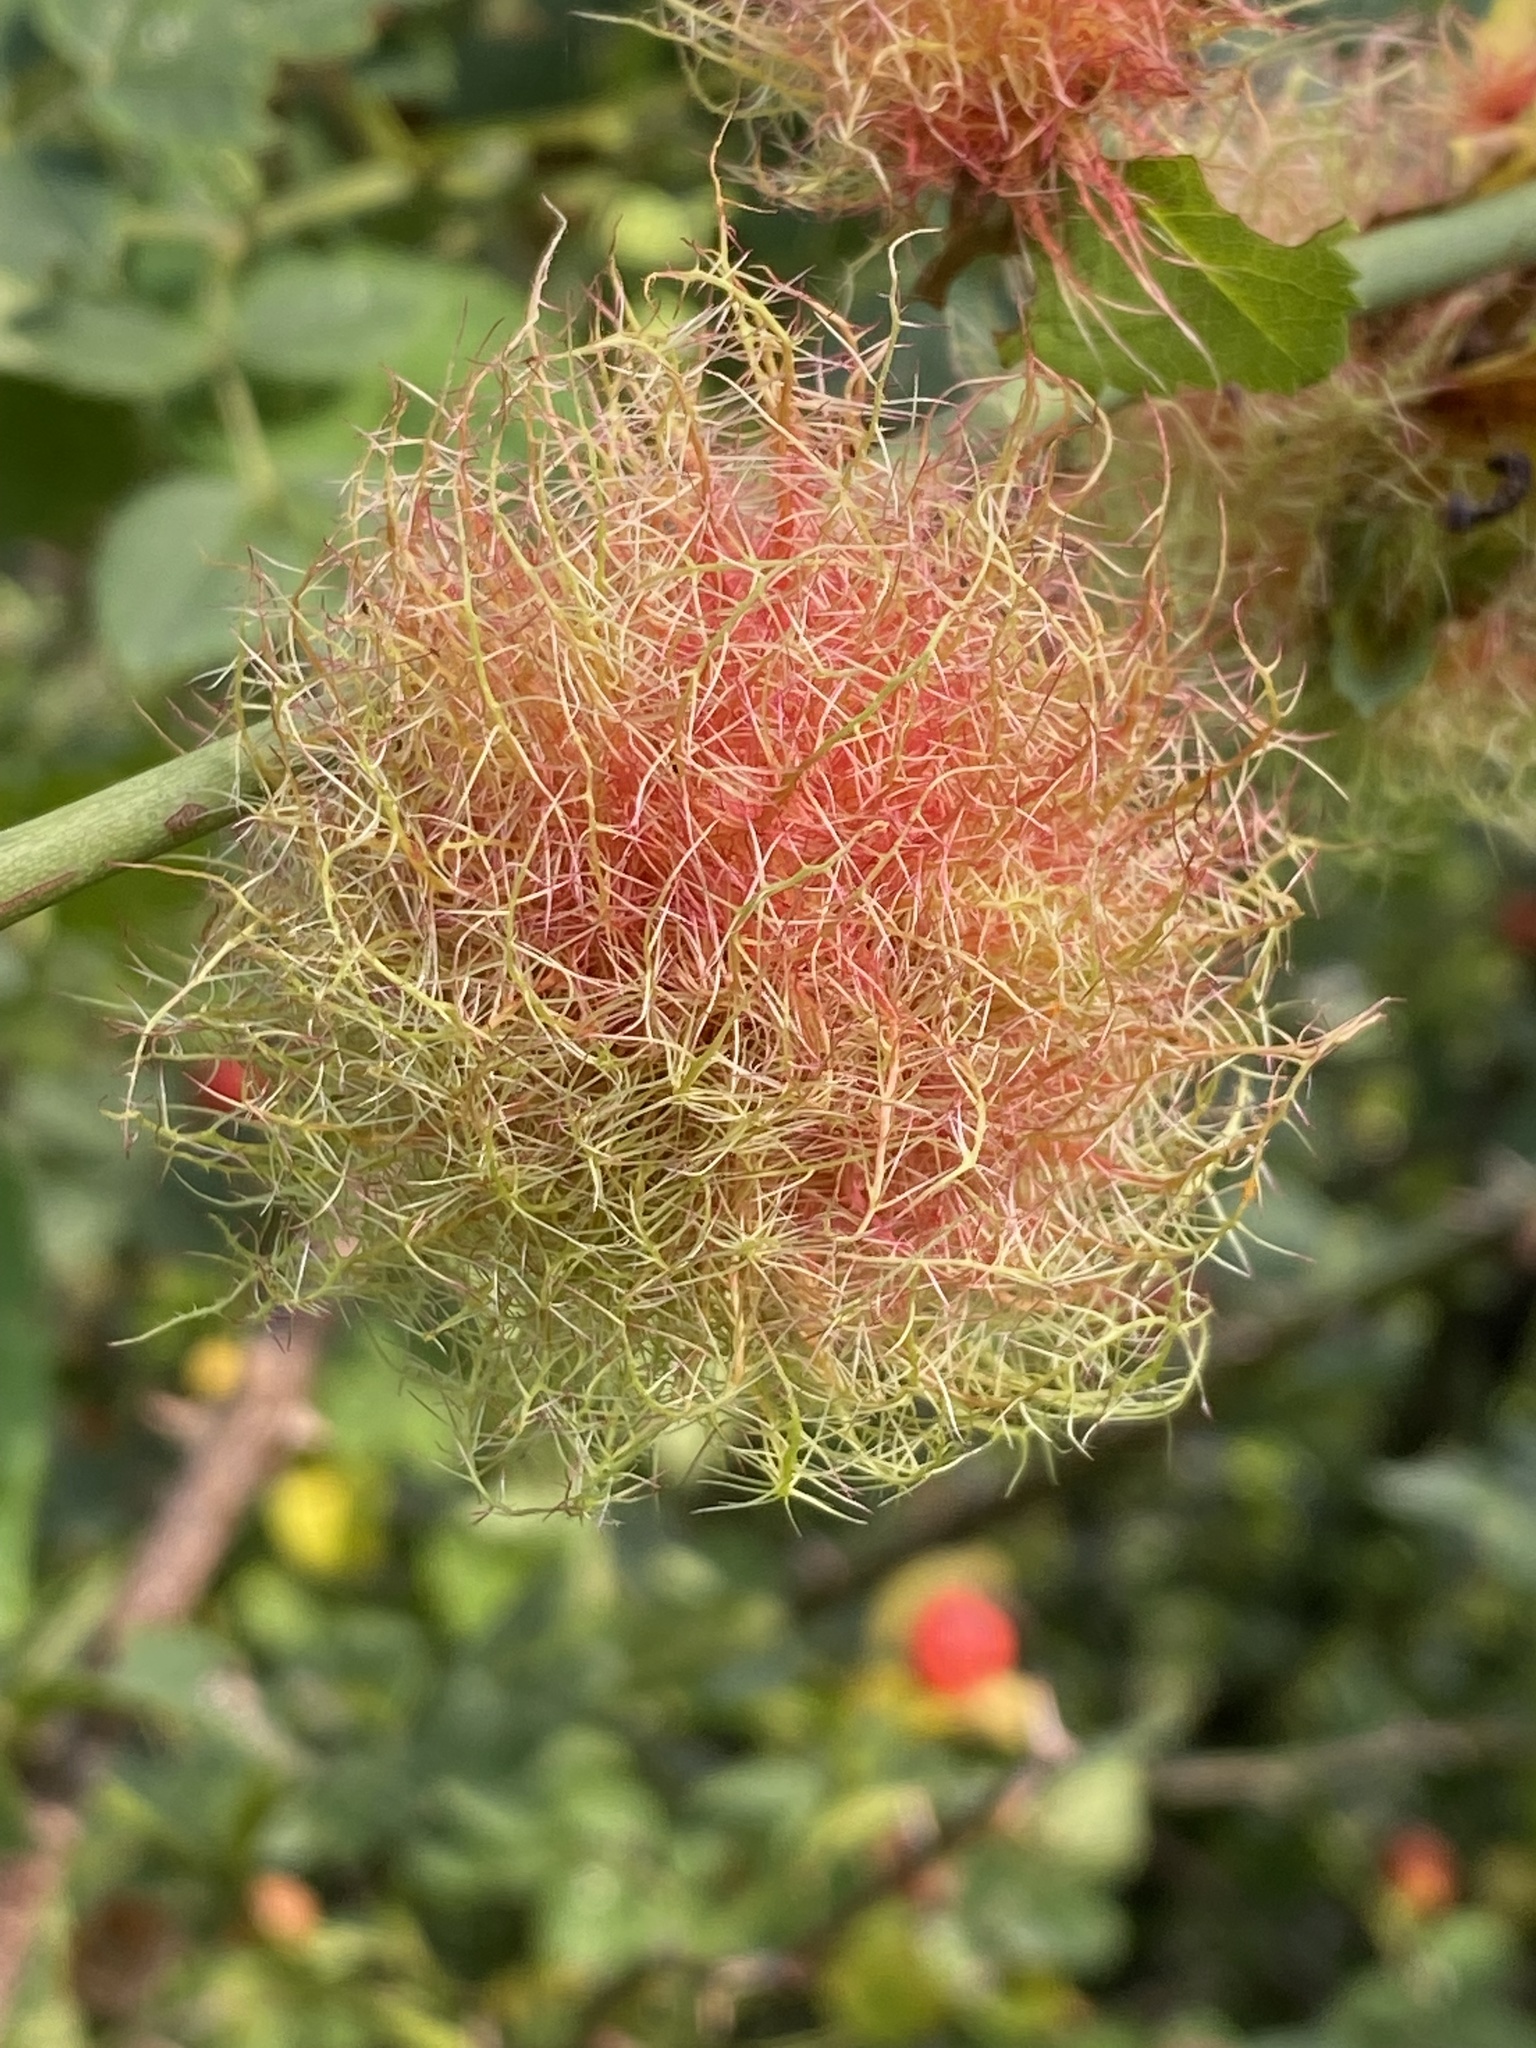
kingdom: Animalia
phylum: Arthropoda
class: Insecta
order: Hymenoptera
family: Cynipidae
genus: Diplolepis
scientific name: Diplolepis rosae
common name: Bedeguar gall
